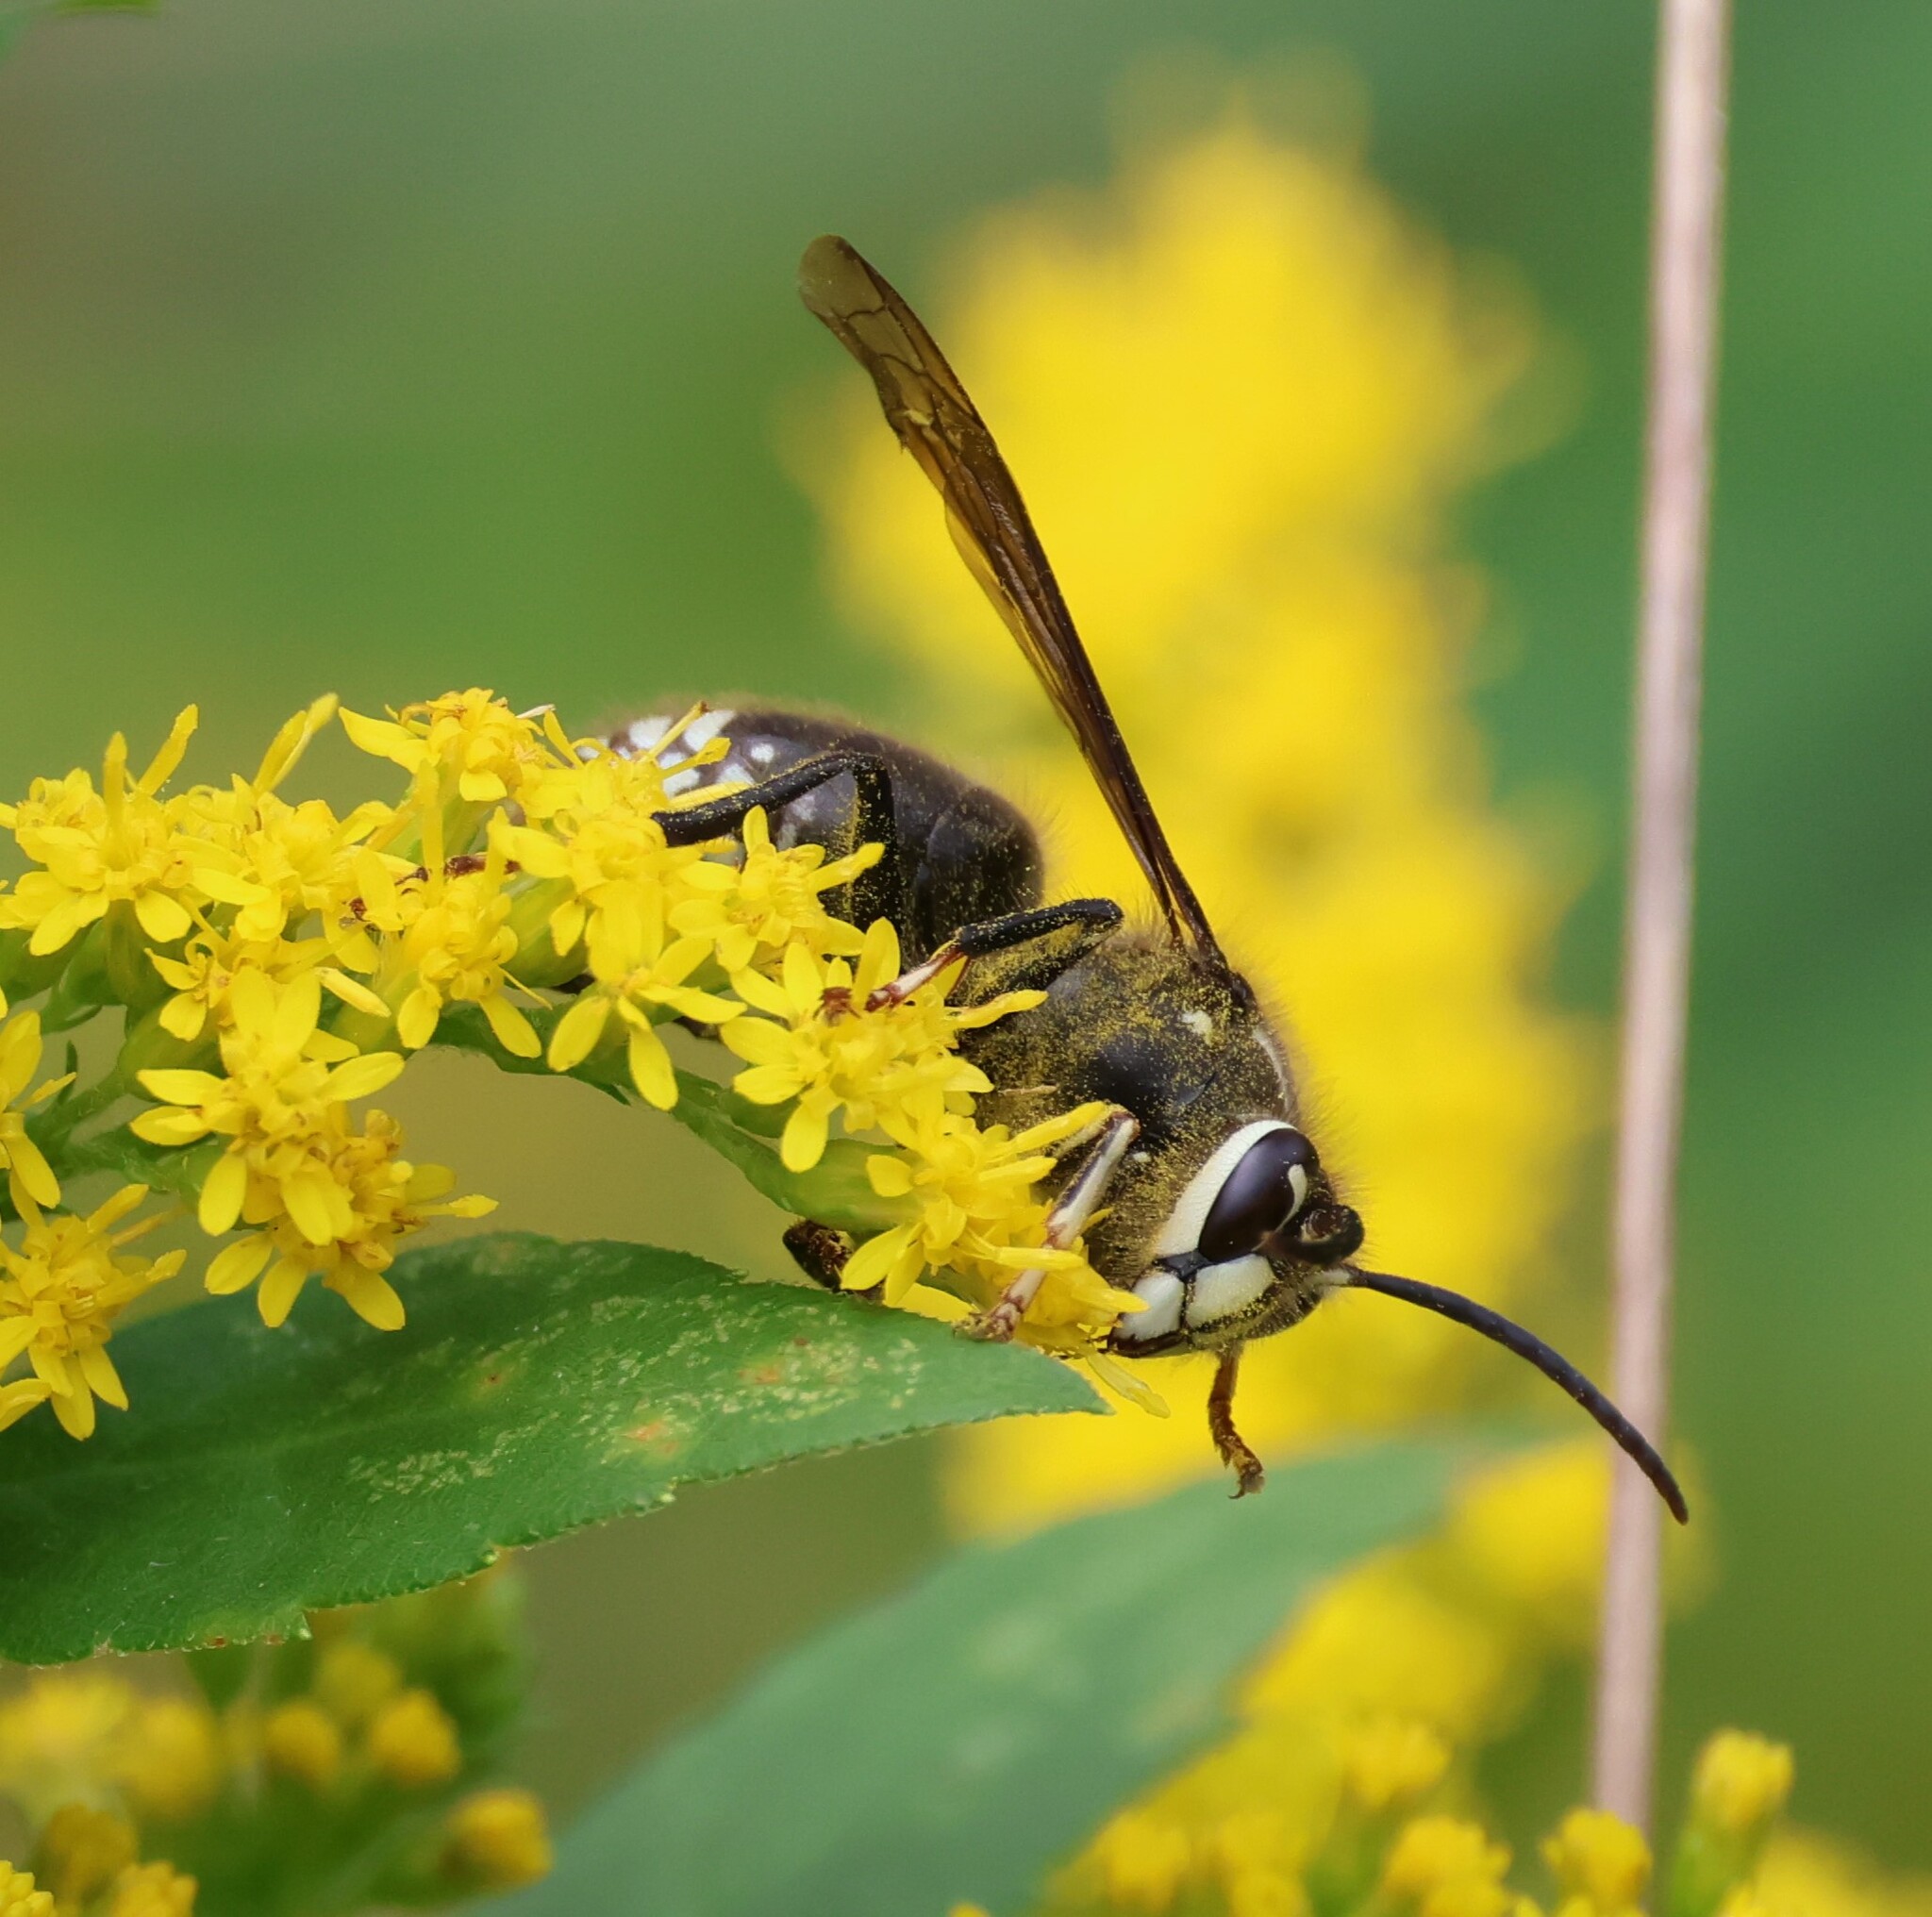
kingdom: Animalia
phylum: Arthropoda
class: Insecta
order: Hymenoptera
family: Vespidae
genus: Dolichovespula
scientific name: Dolichovespula maculata
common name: Bald-faced hornet
